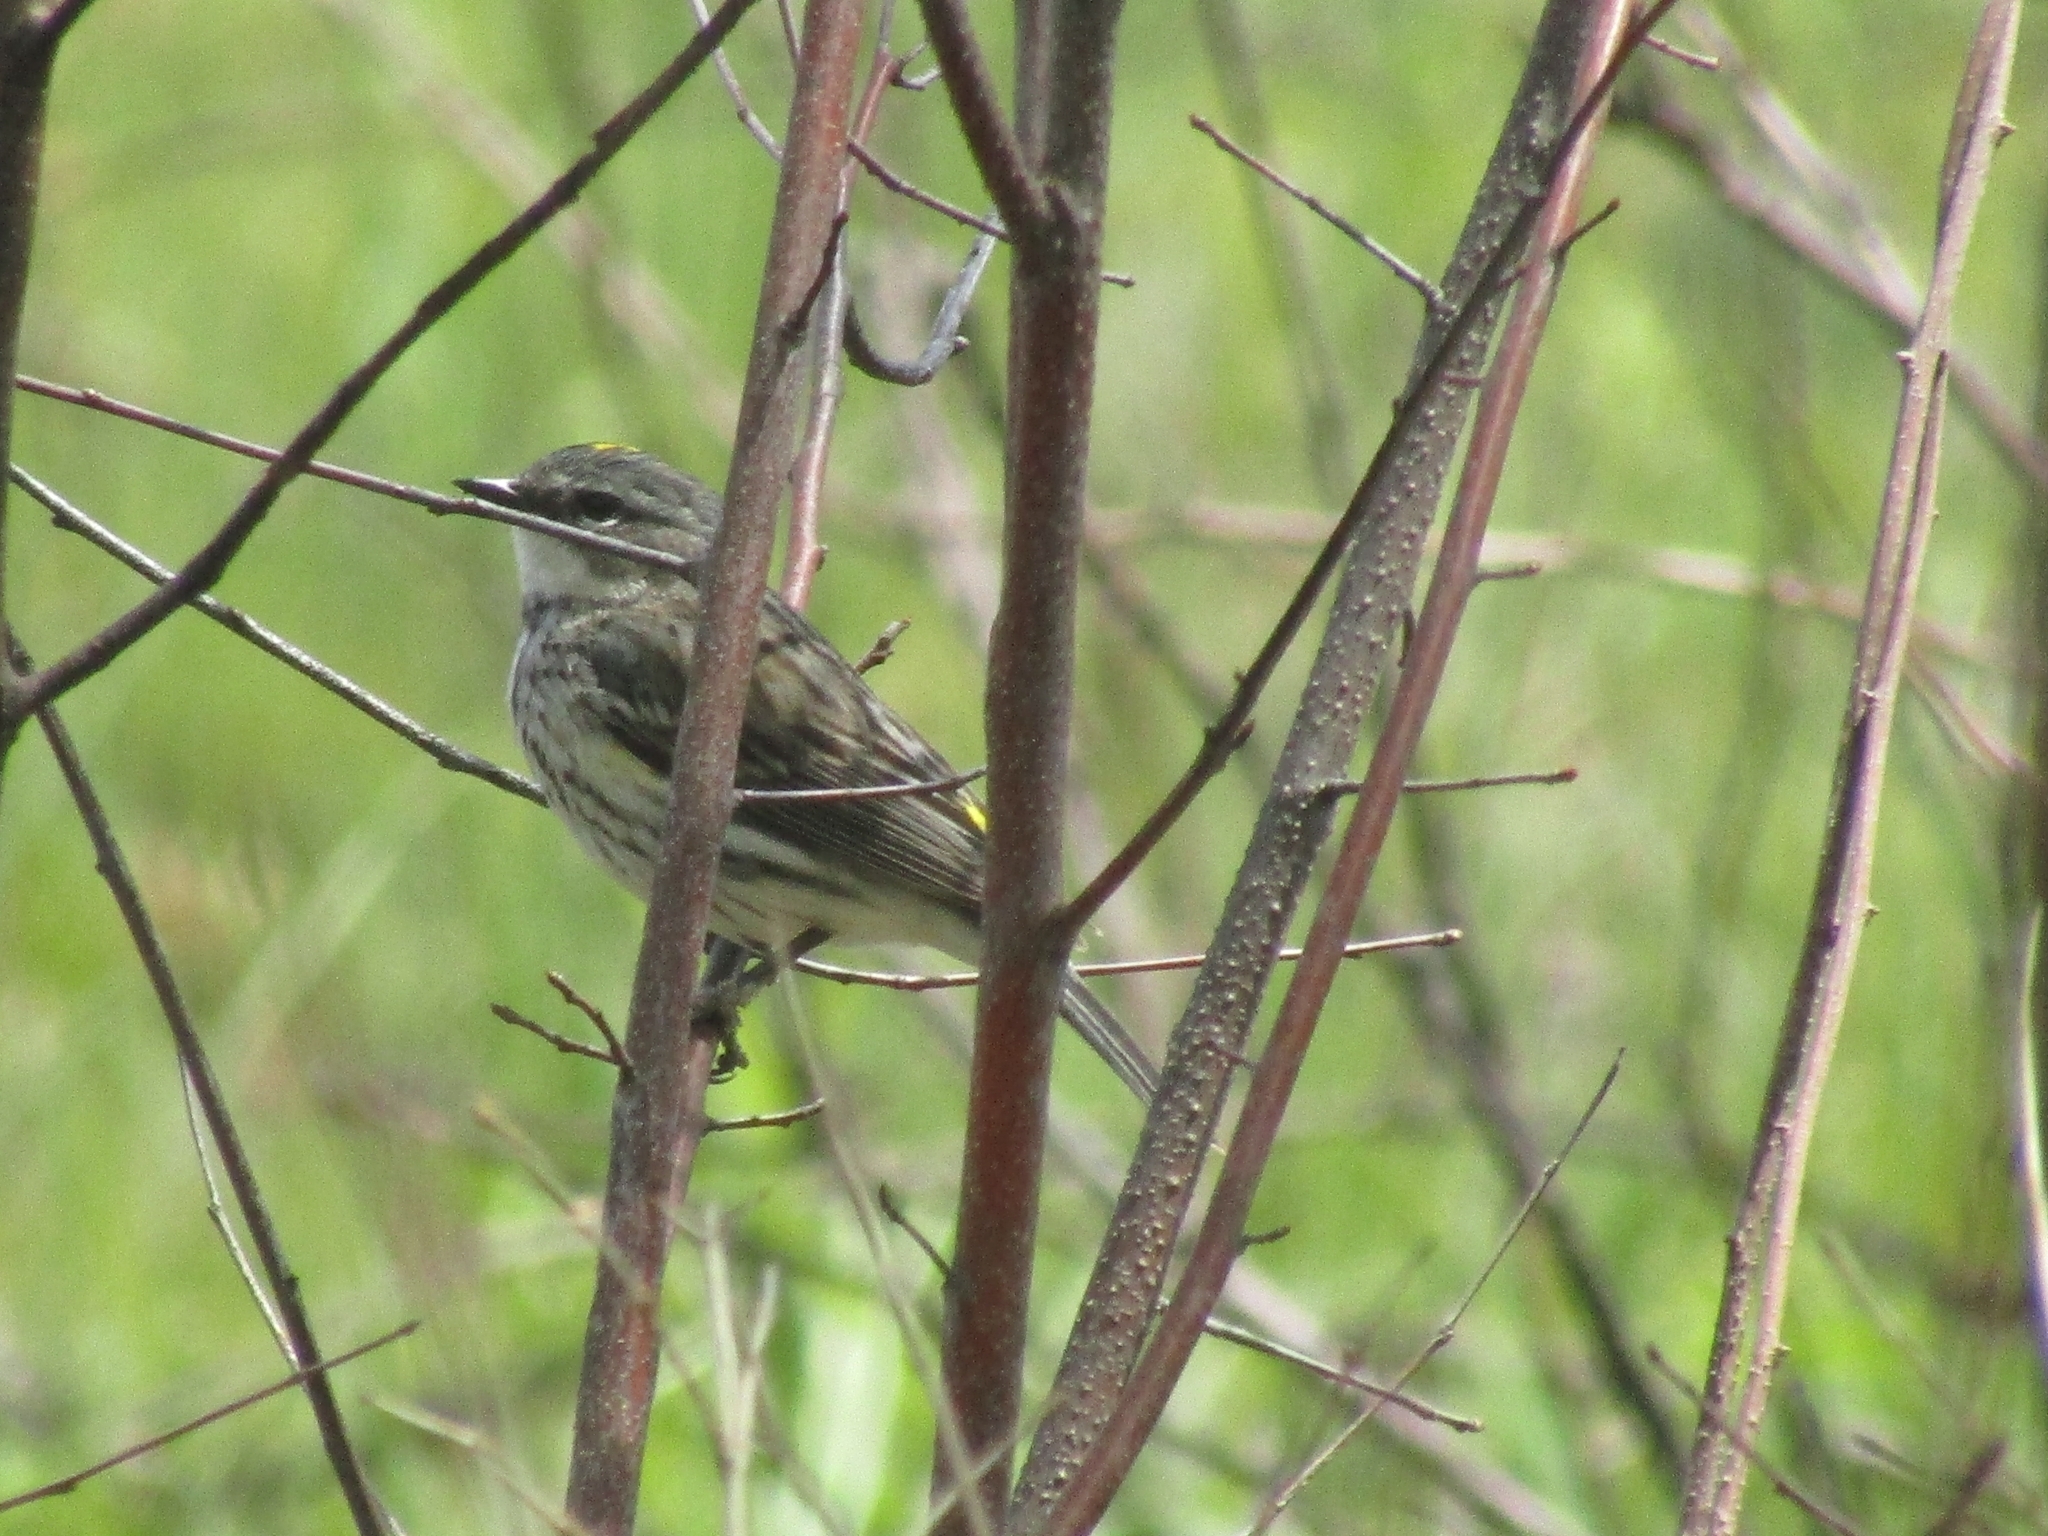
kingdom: Animalia
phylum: Chordata
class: Aves
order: Passeriformes
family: Parulidae
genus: Setophaga
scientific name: Setophaga coronata
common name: Myrtle warbler
